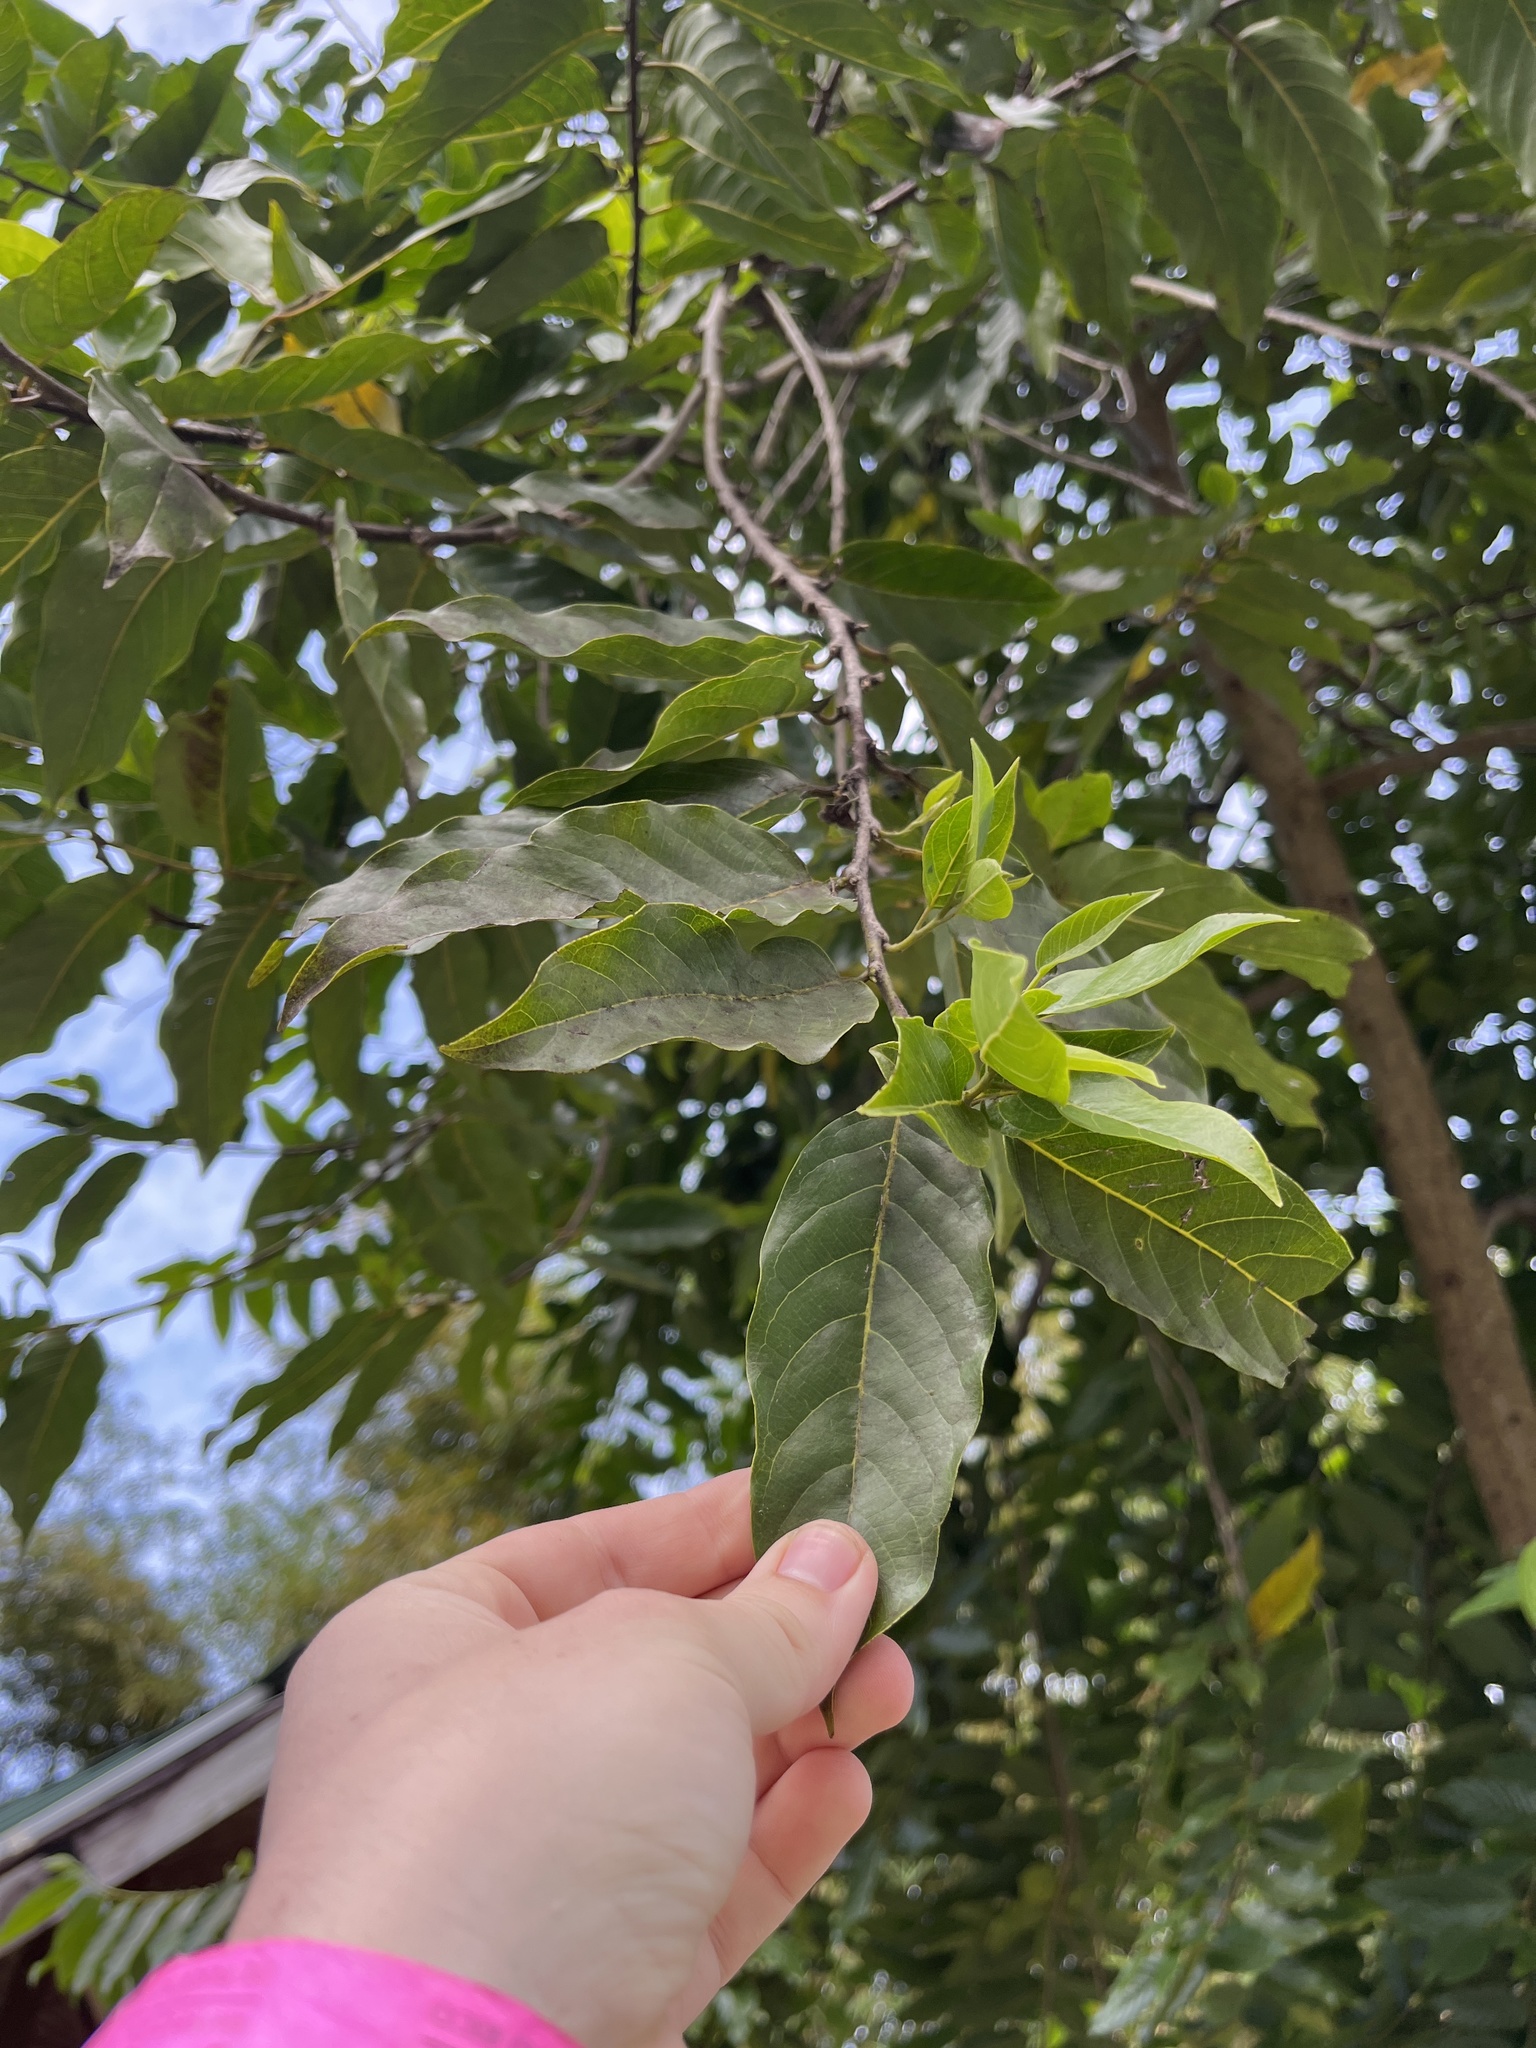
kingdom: Plantae
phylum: Tracheophyta
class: Magnoliopsida
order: Magnoliales
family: Annonaceae
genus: Cananga
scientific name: Cananga odorata
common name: Cananga tree
